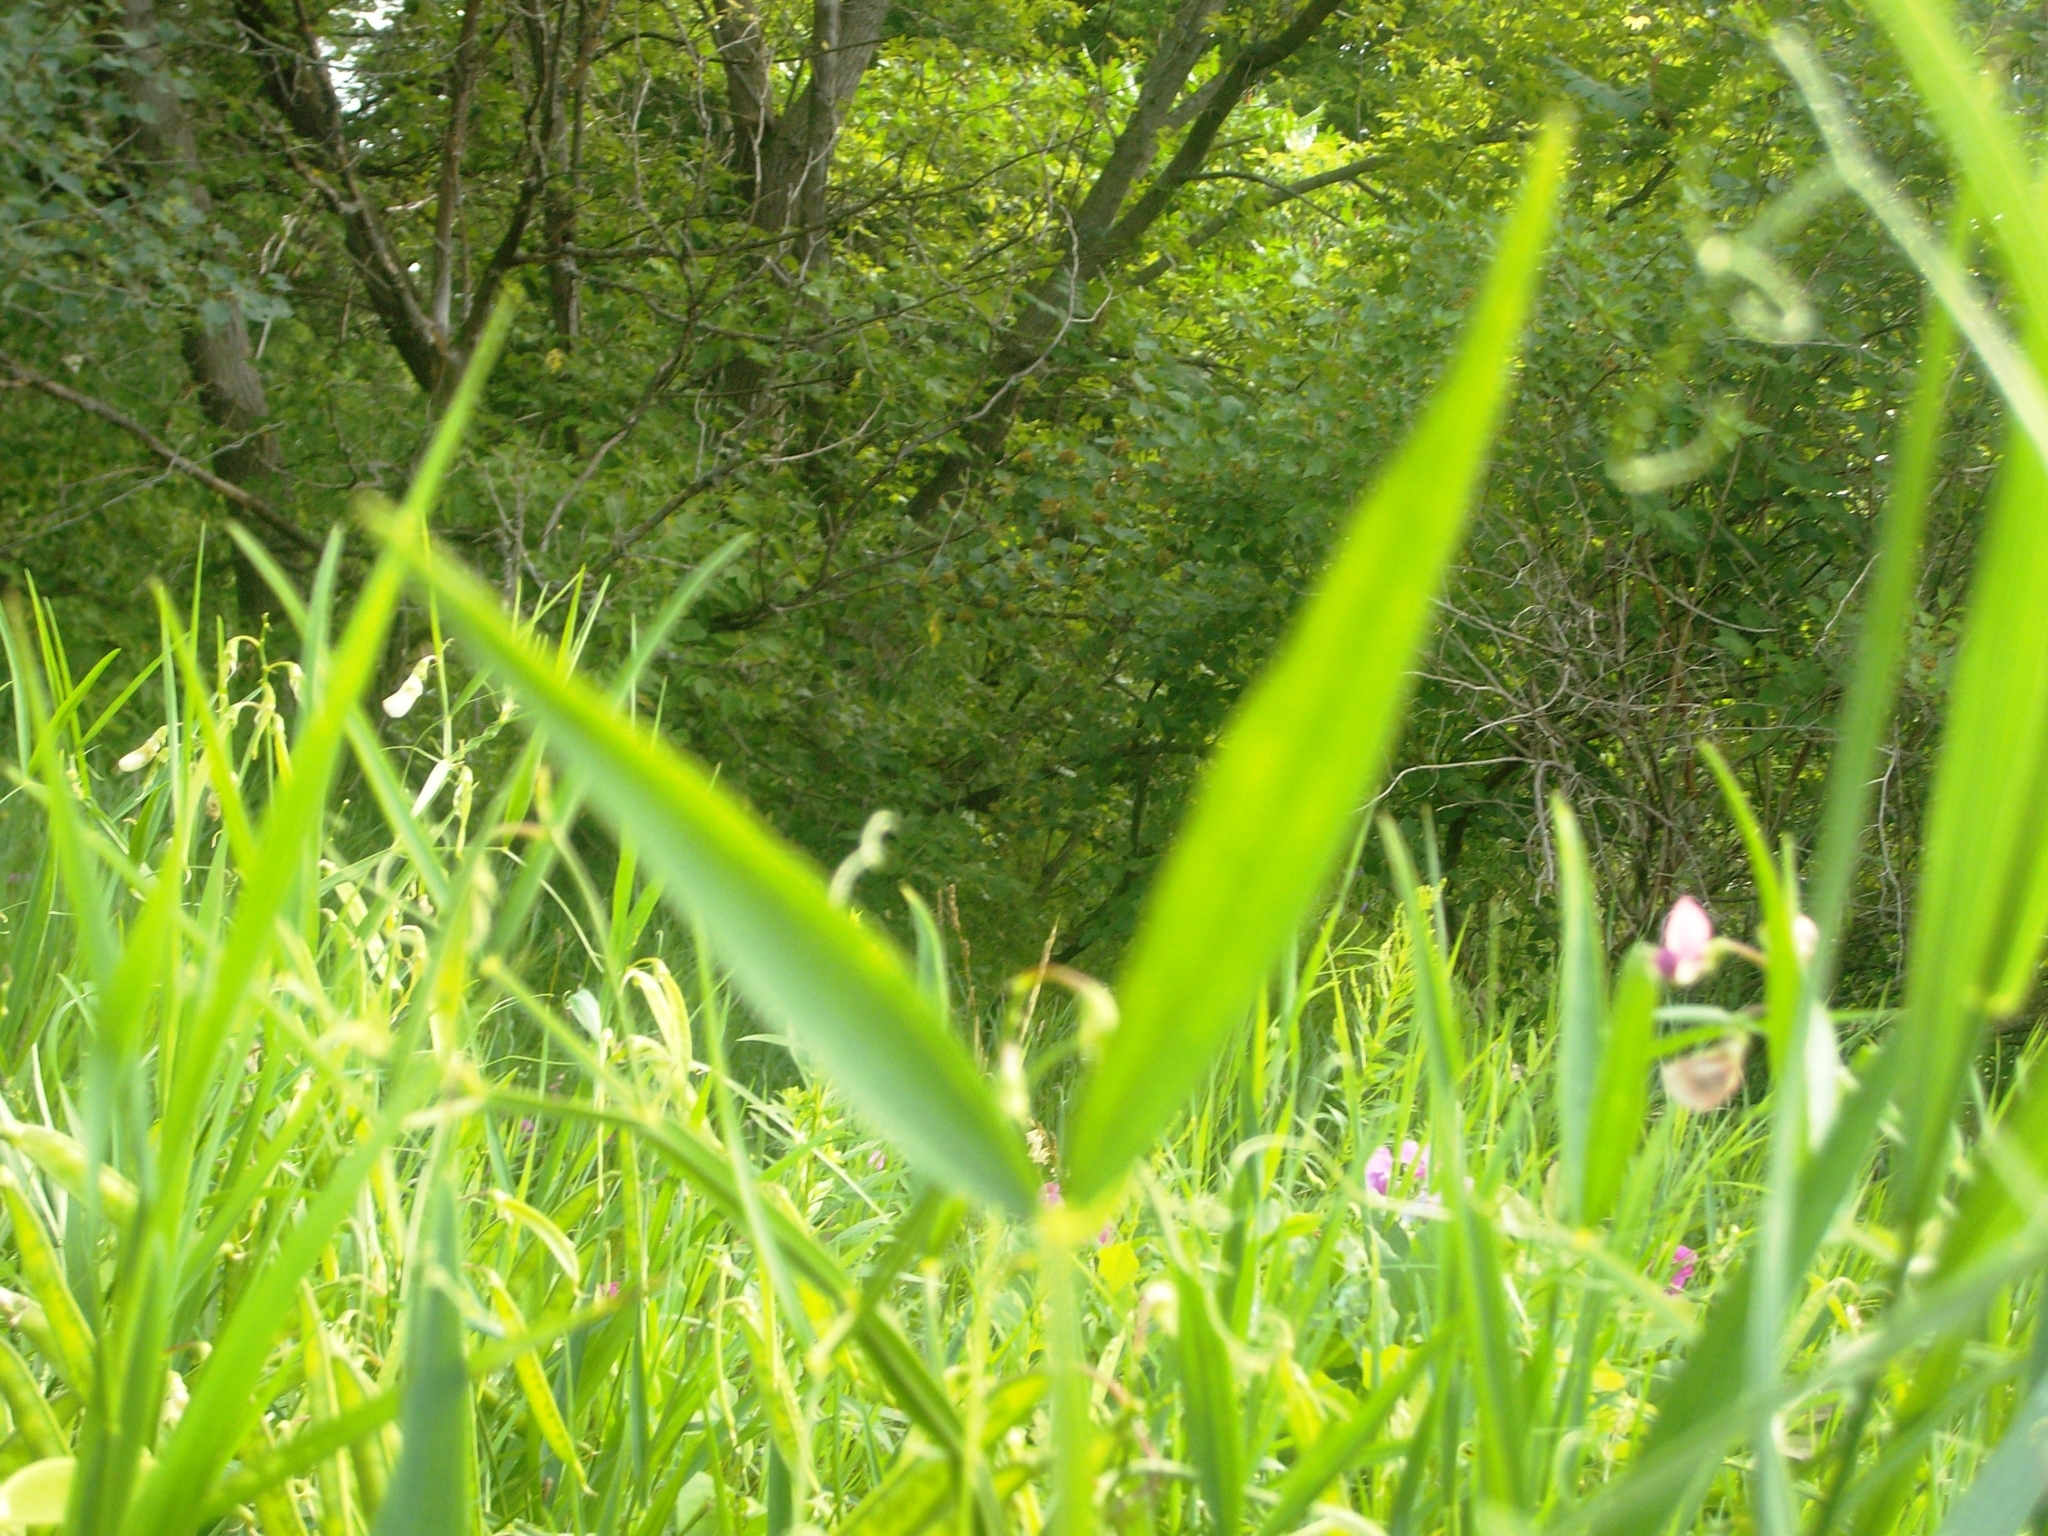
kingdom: Plantae
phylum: Tracheophyta
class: Magnoliopsida
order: Fabales
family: Fabaceae
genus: Lathyrus
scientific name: Lathyrus sylvestris
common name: Flat pea
